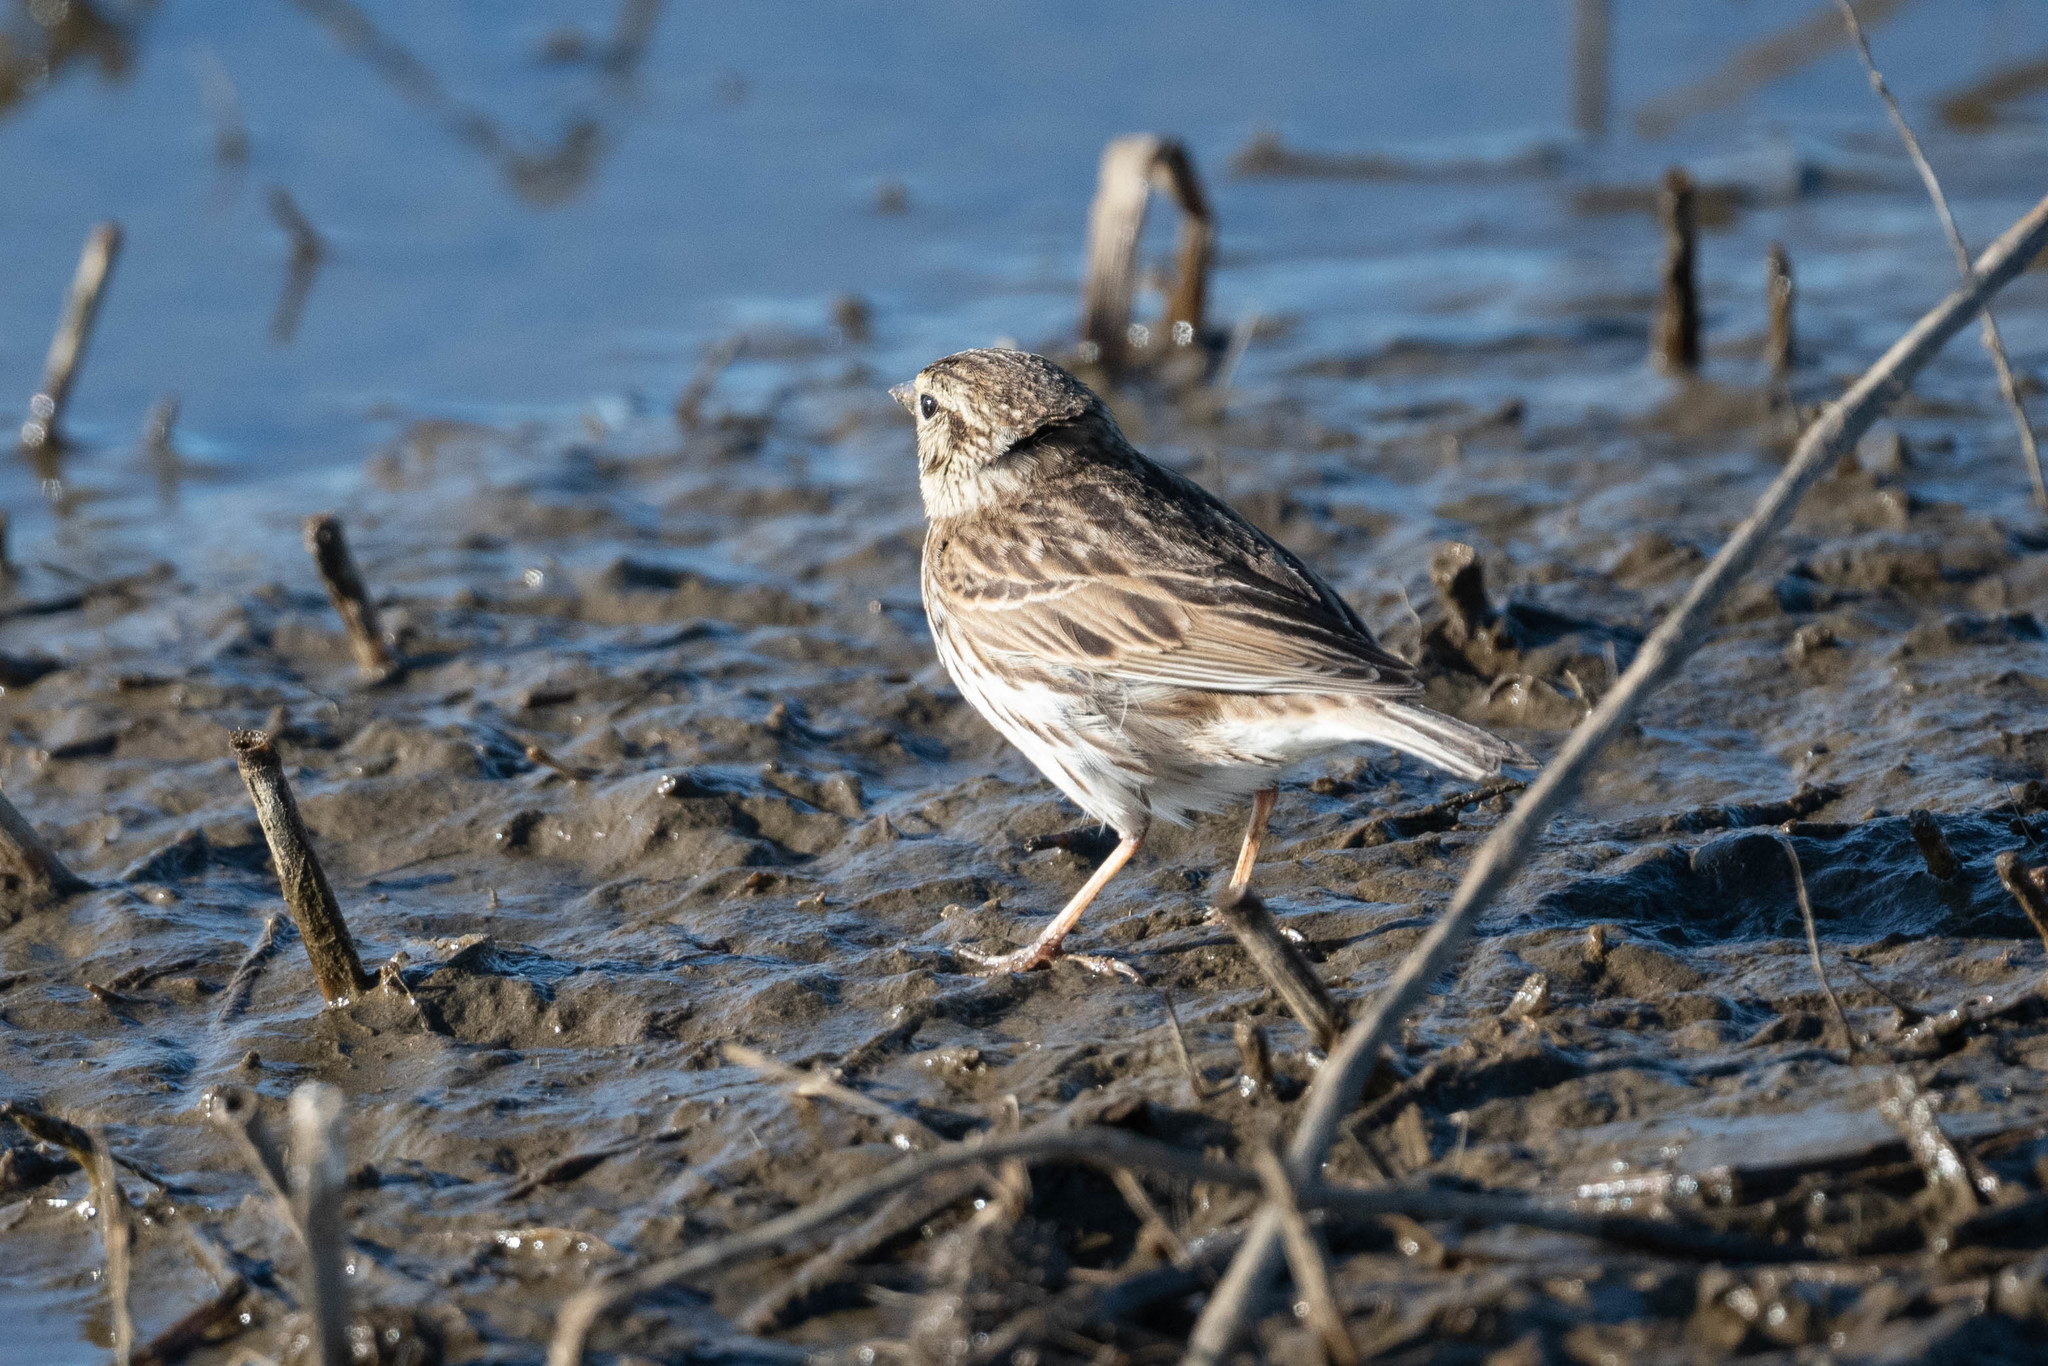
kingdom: Animalia
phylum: Chordata
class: Aves
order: Passeriformes
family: Passerellidae
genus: Passerculus
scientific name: Passerculus sandwichensis
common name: Savannah sparrow
